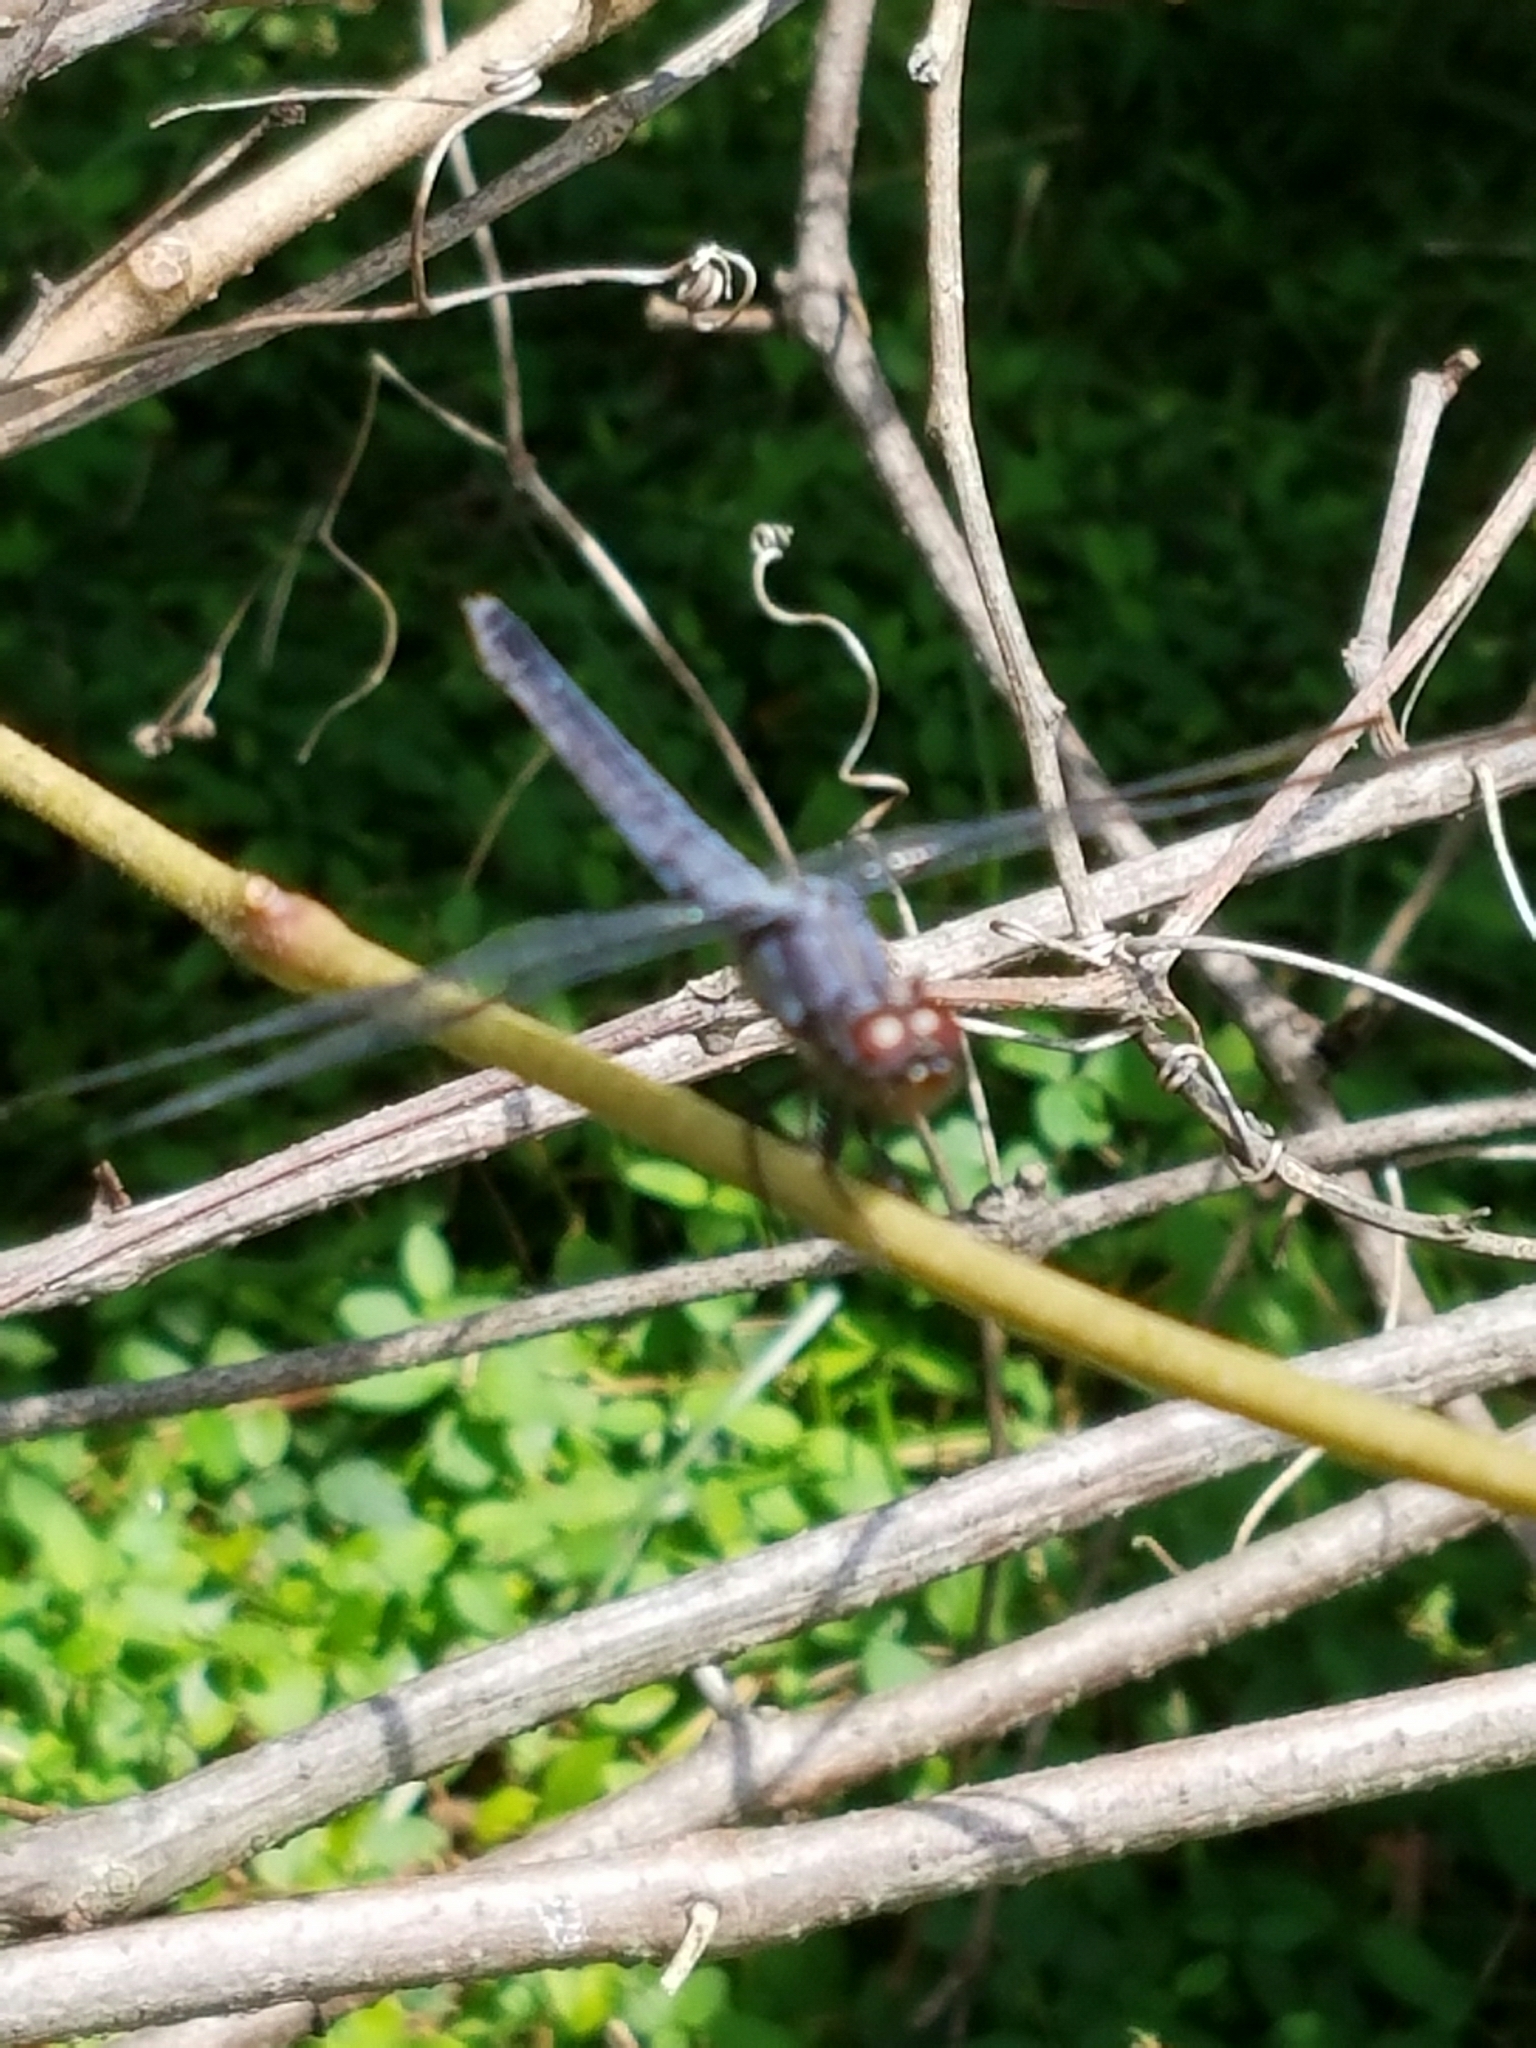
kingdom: Animalia
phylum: Arthropoda
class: Insecta
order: Odonata
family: Libellulidae
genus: Libellula
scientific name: Libellula incesta
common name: Slaty skimmer
